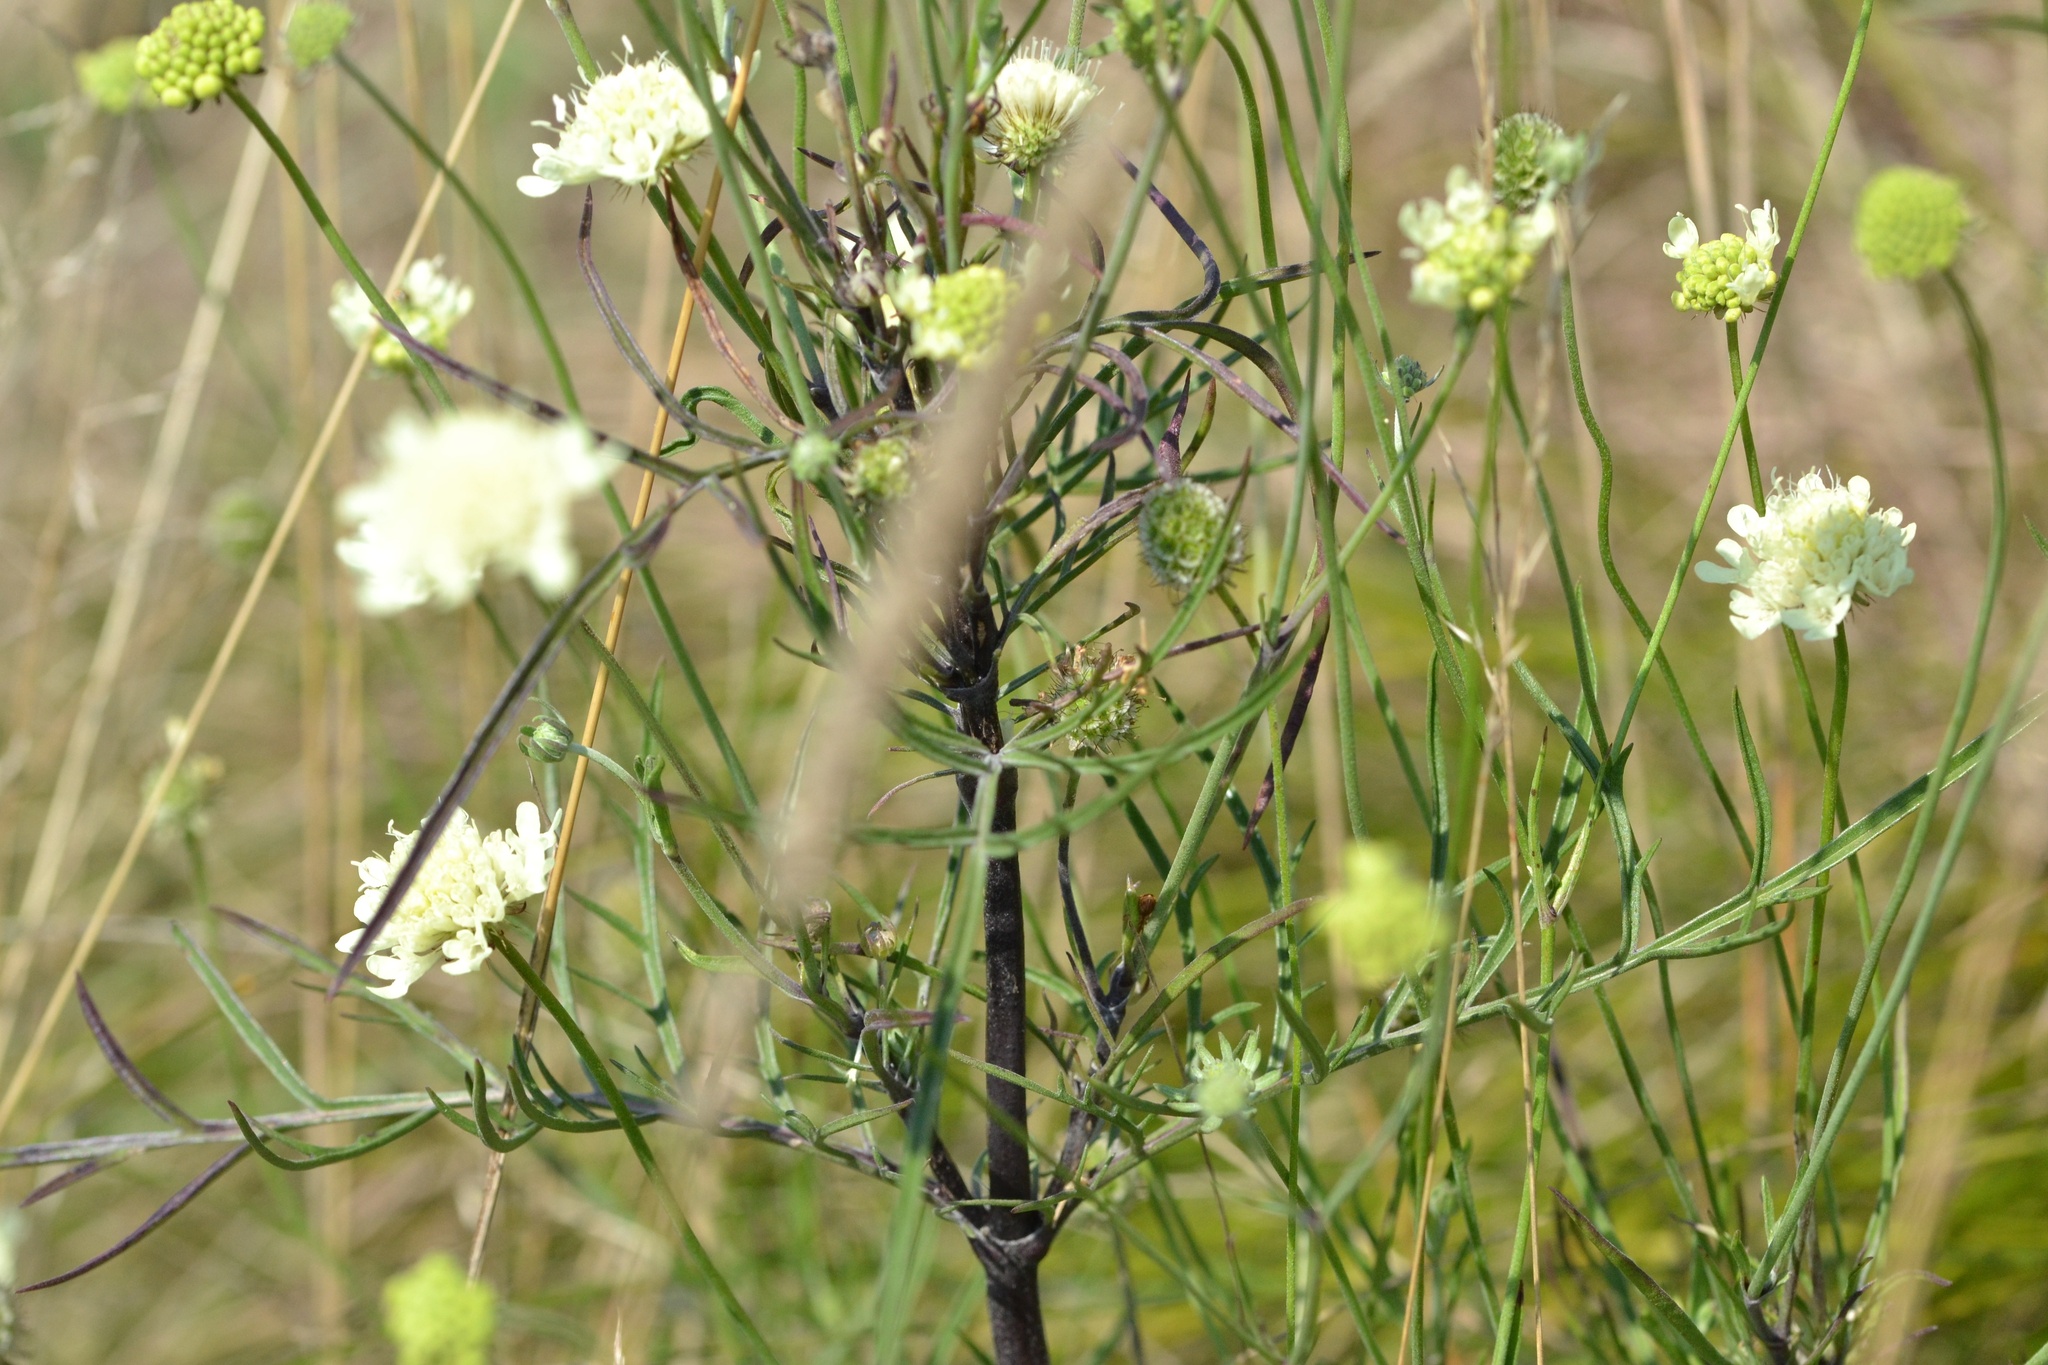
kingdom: Plantae
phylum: Tracheophyta
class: Magnoliopsida
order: Dipsacales
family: Caprifoliaceae
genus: Scabiosa
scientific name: Scabiosa ochroleuca
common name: Cream pincushions
